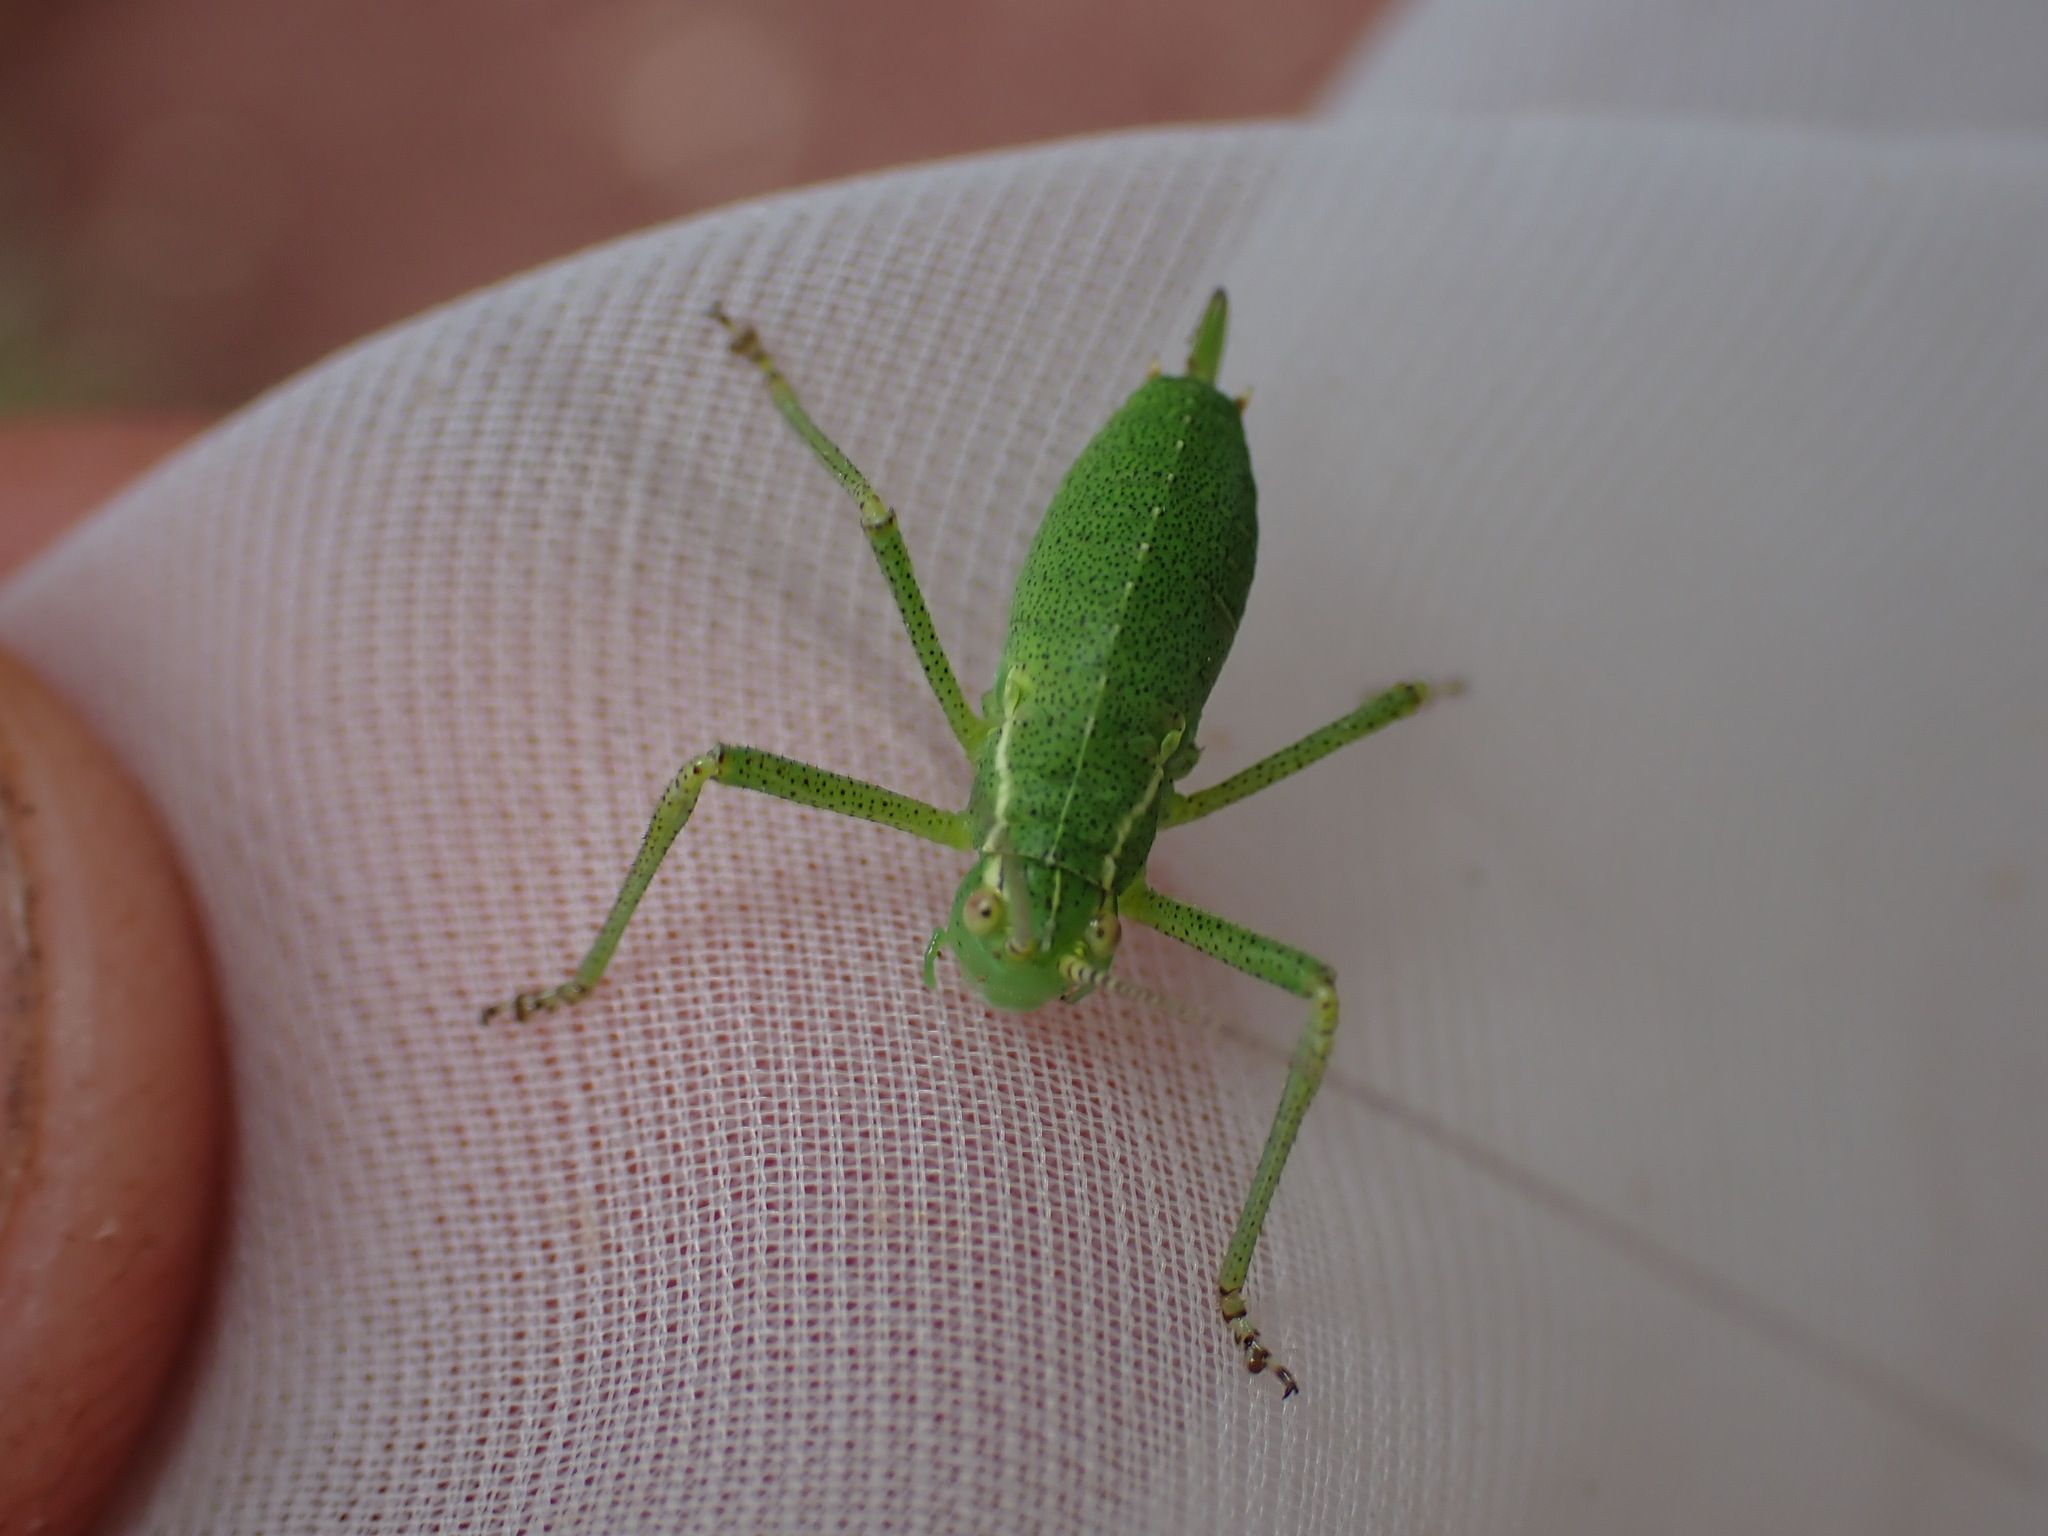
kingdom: Animalia
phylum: Arthropoda
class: Insecta
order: Orthoptera
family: Tettigoniidae
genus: Leptophyes
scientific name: Leptophyes punctatissima
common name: Speckled bush-cricket
